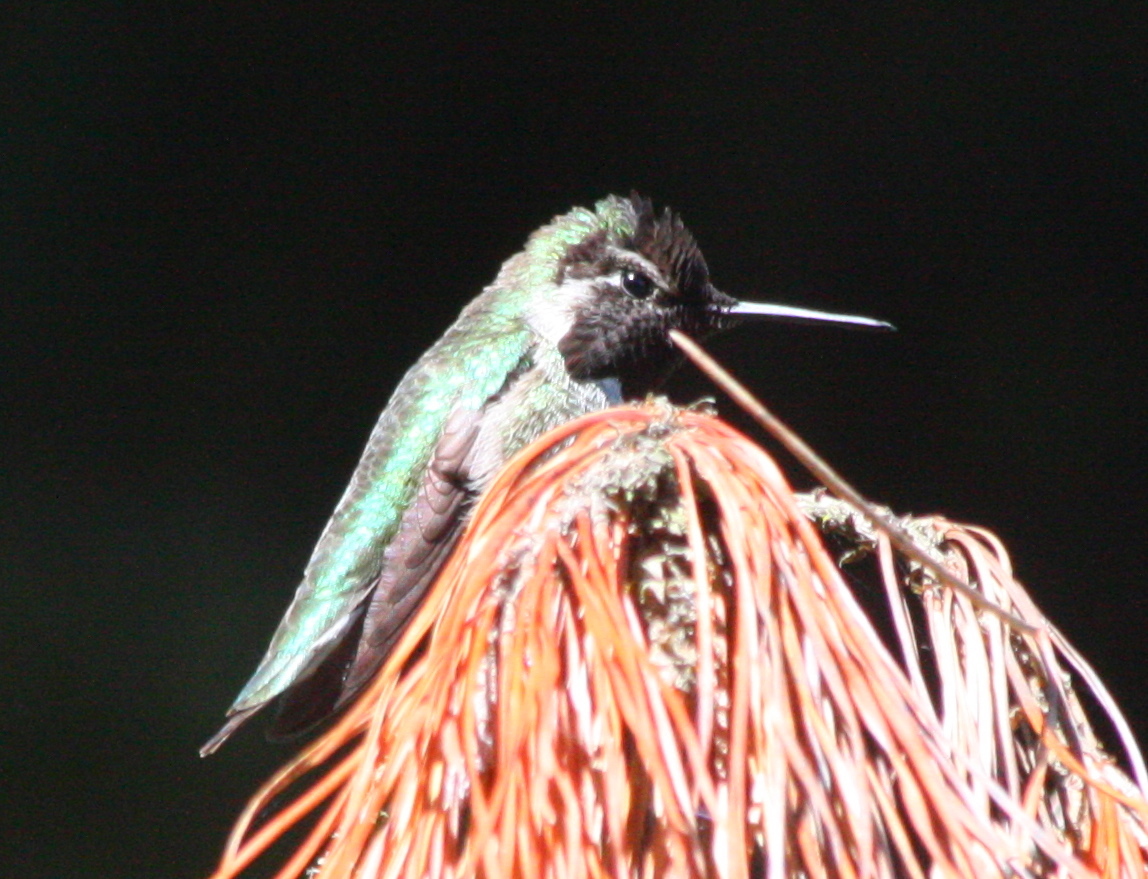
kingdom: Animalia
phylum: Chordata
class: Aves
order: Apodiformes
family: Trochilidae
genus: Calypte
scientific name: Calypte anna
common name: Anna's hummingbird
